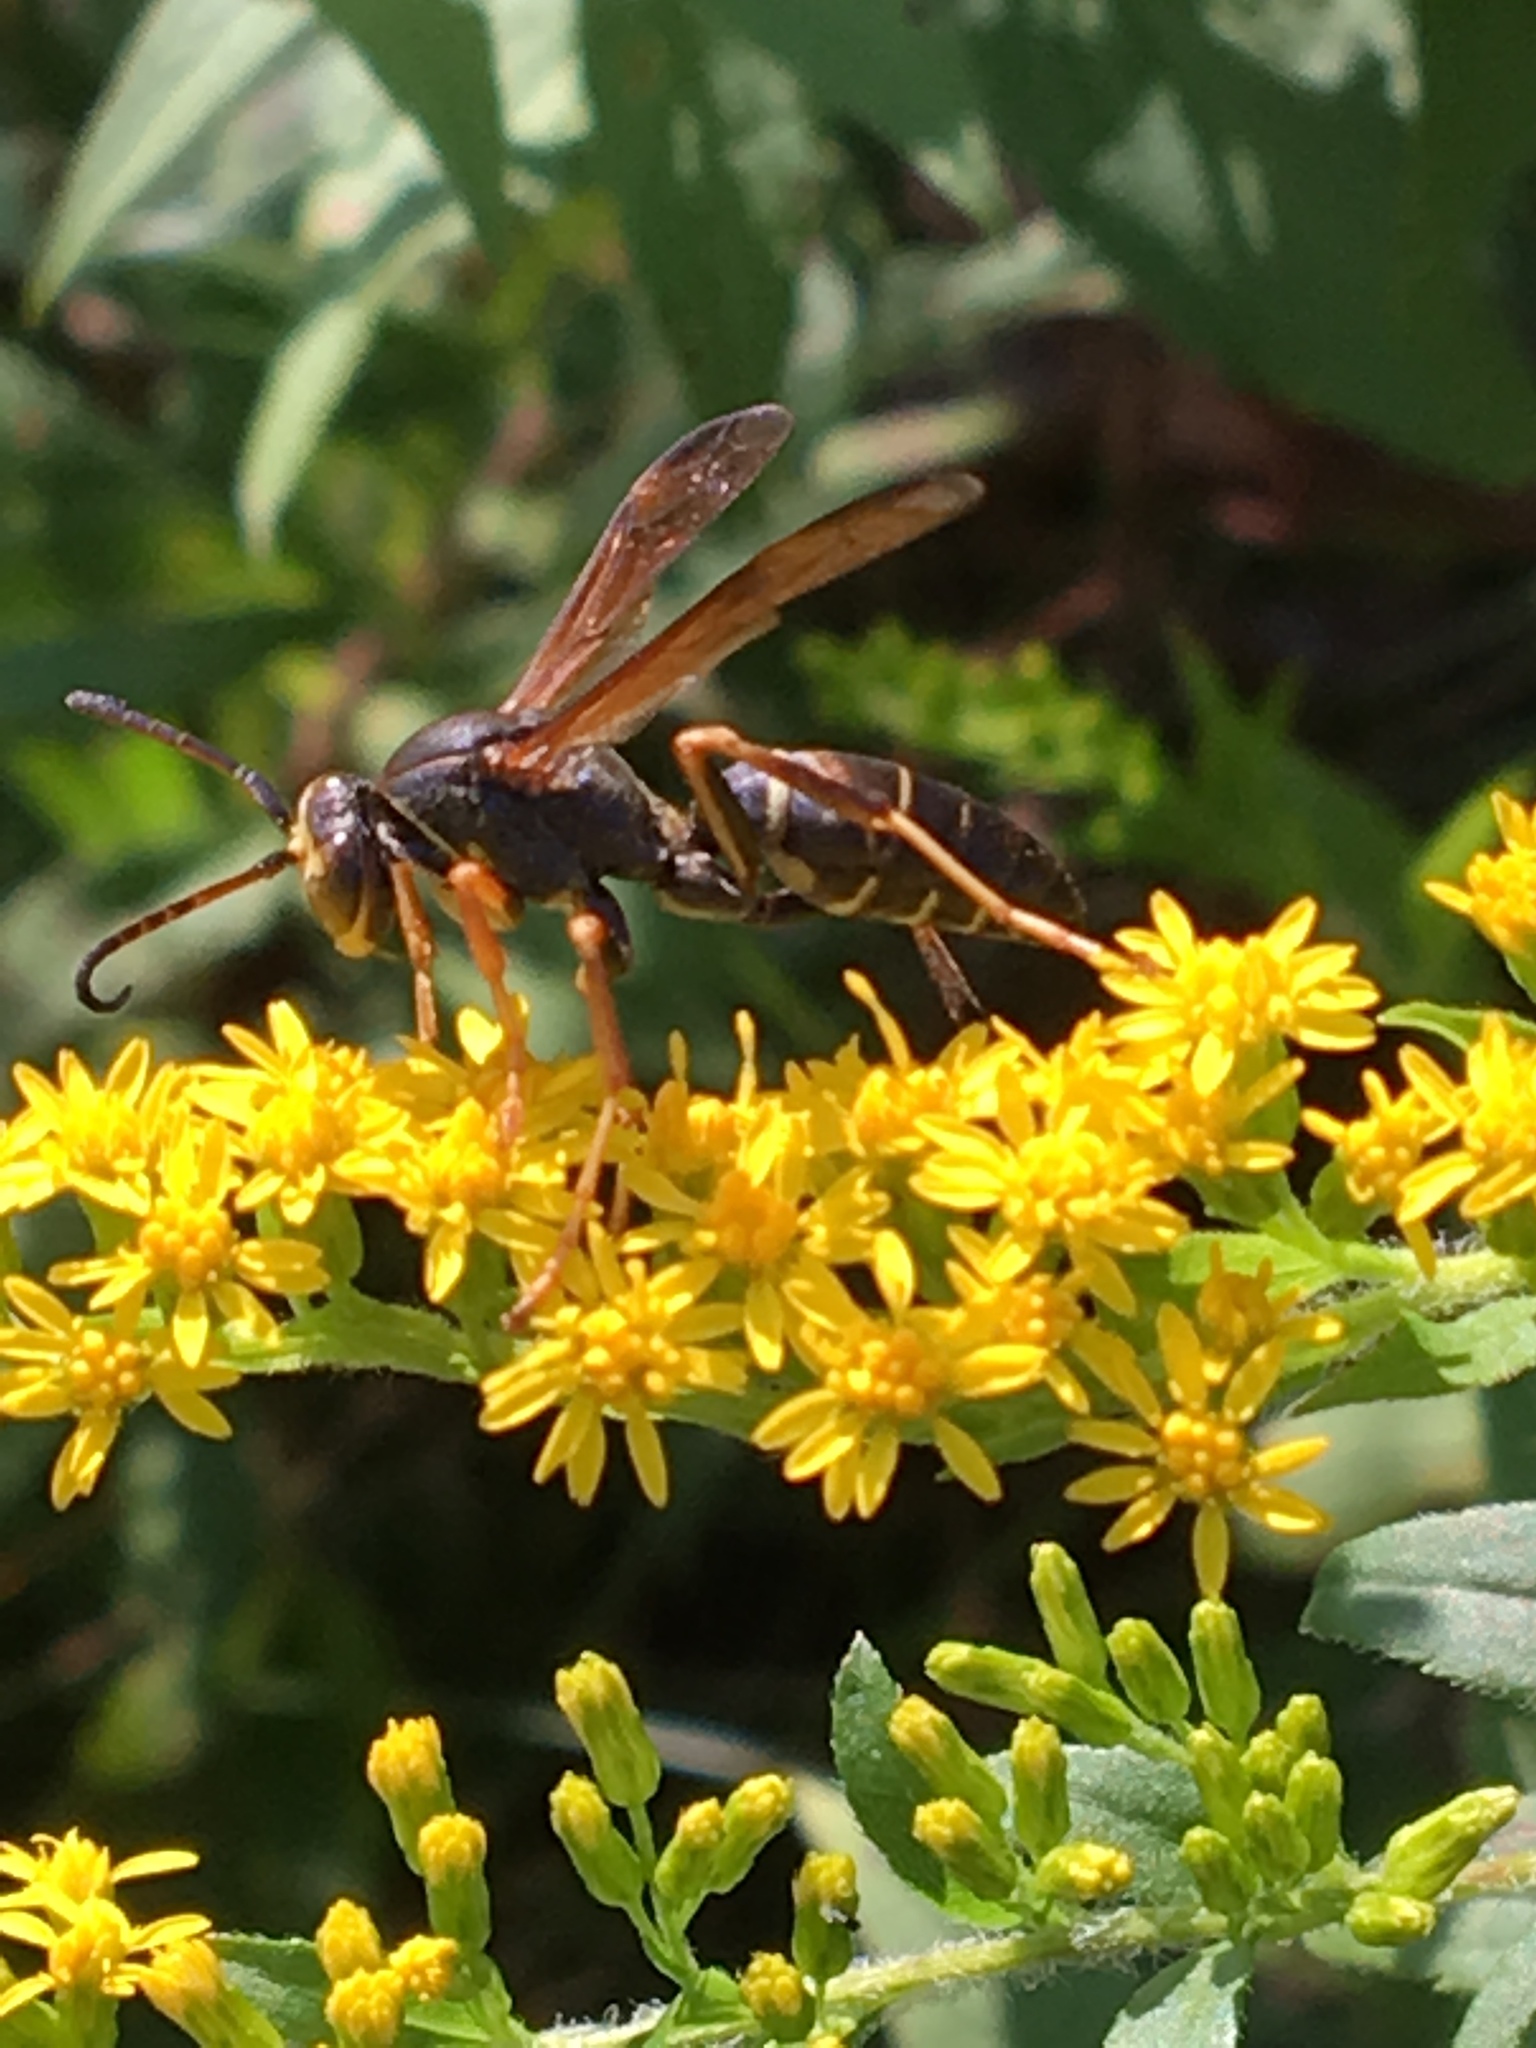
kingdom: Animalia
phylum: Arthropoda
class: Insecta
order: Hymenoptera
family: Eumenidae
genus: Polistes
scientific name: Polistes fuscatus
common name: Dark paper wasp
